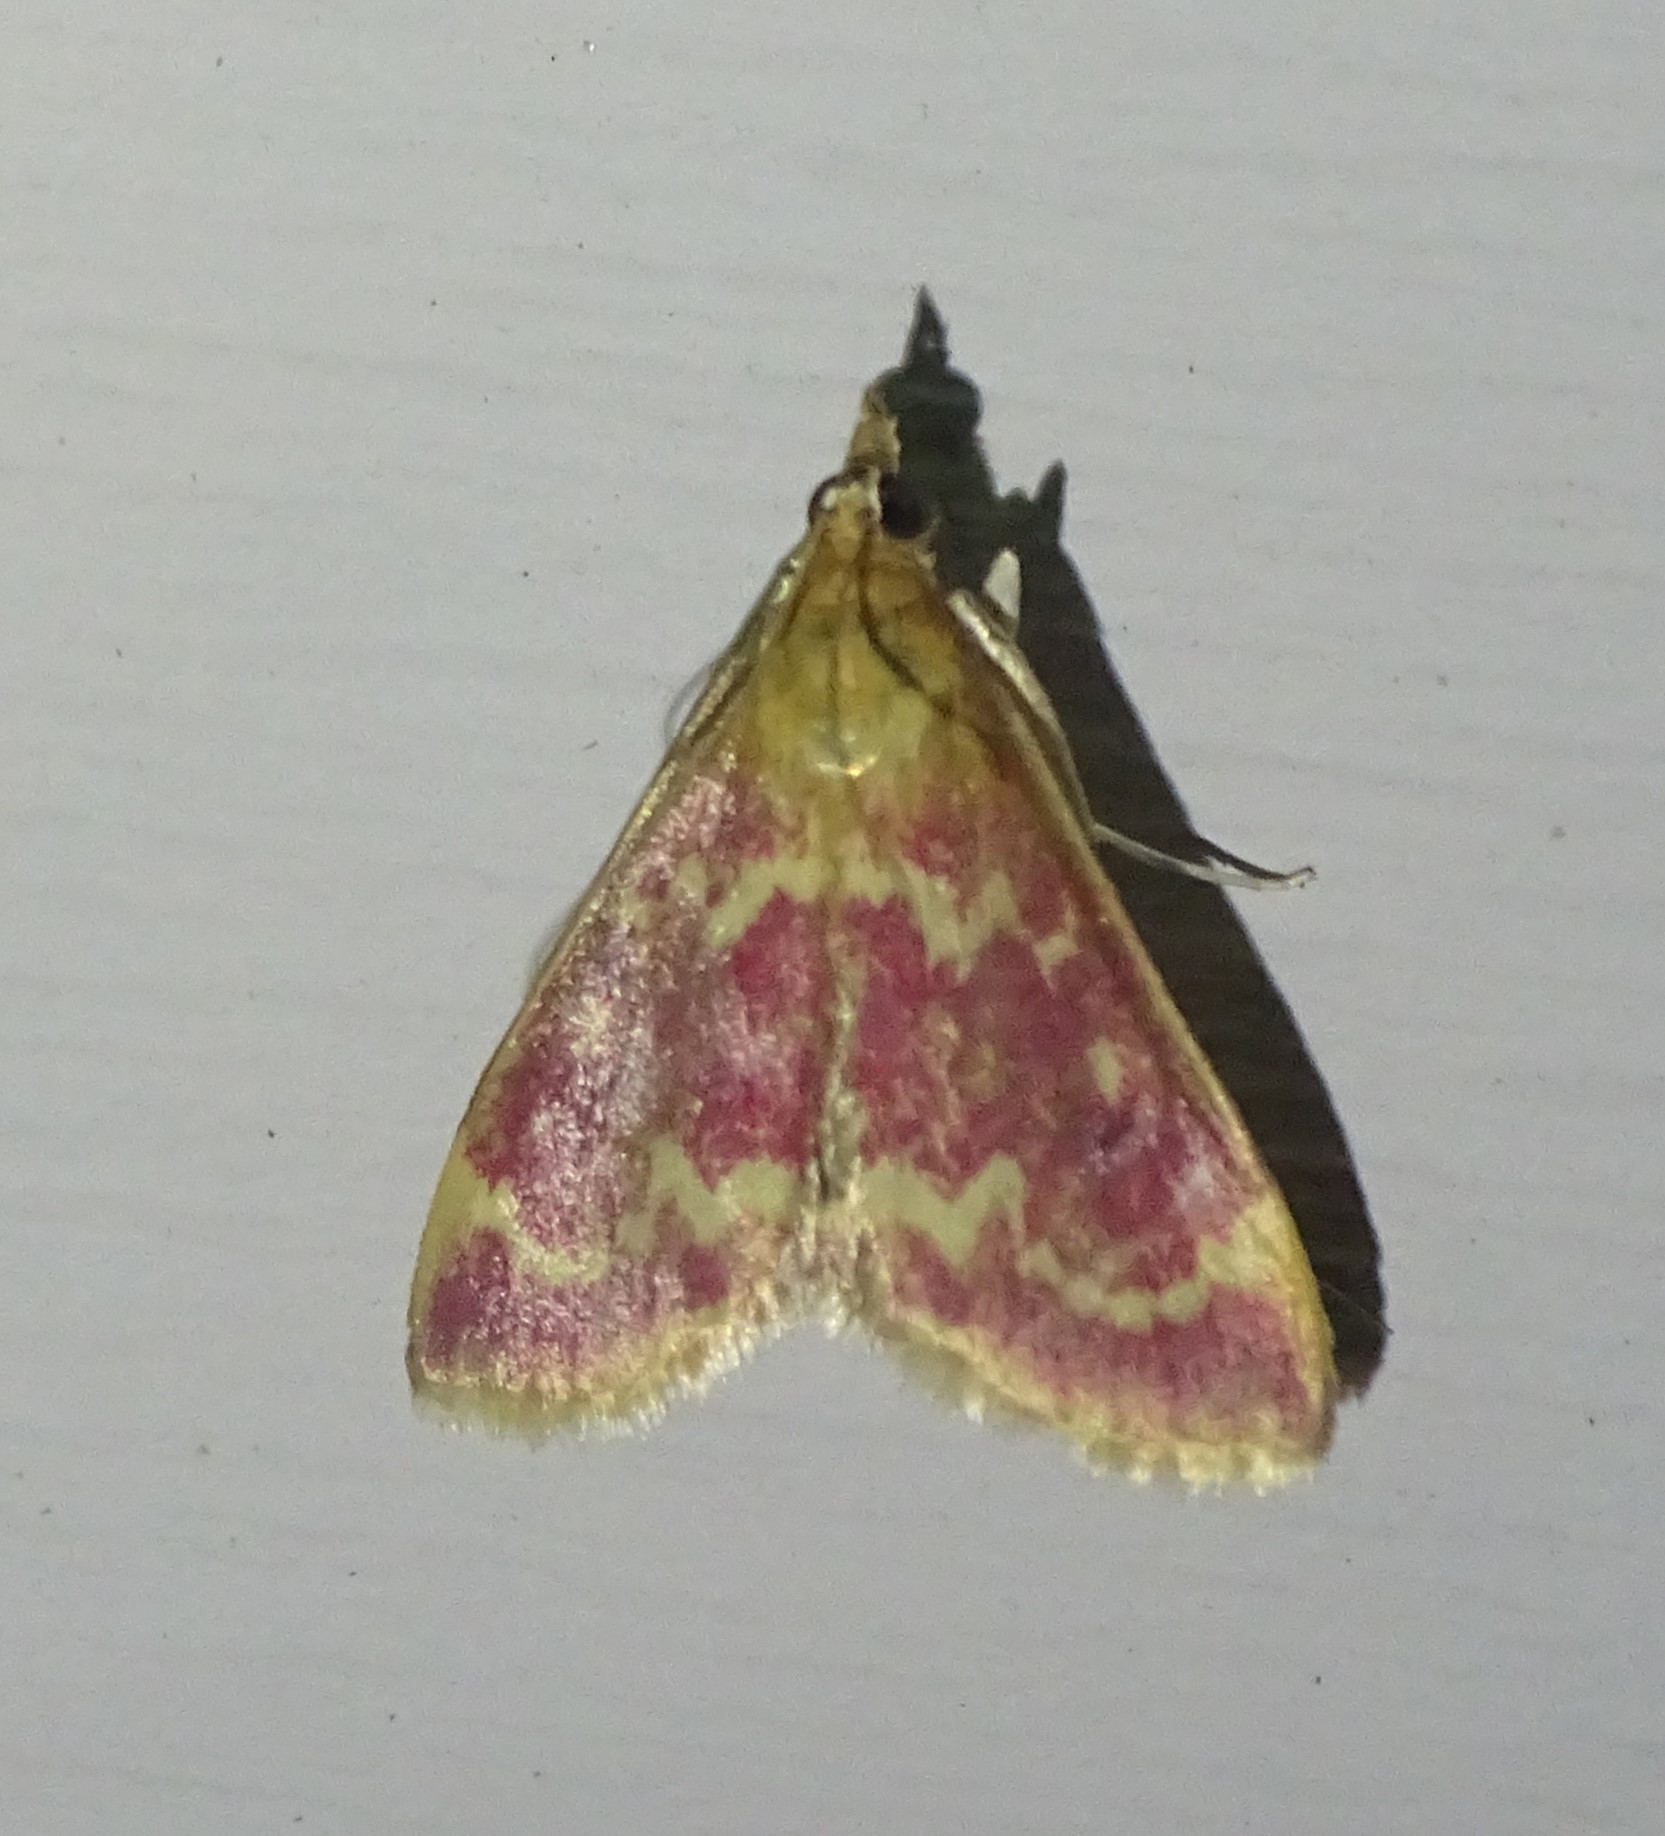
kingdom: Animalia
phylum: Arthropoda
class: Insecta
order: Lepidoptera
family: Crambidae
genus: Pyrausta
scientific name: Pyrausta signatalis
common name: Raspberry pyrausta moth
